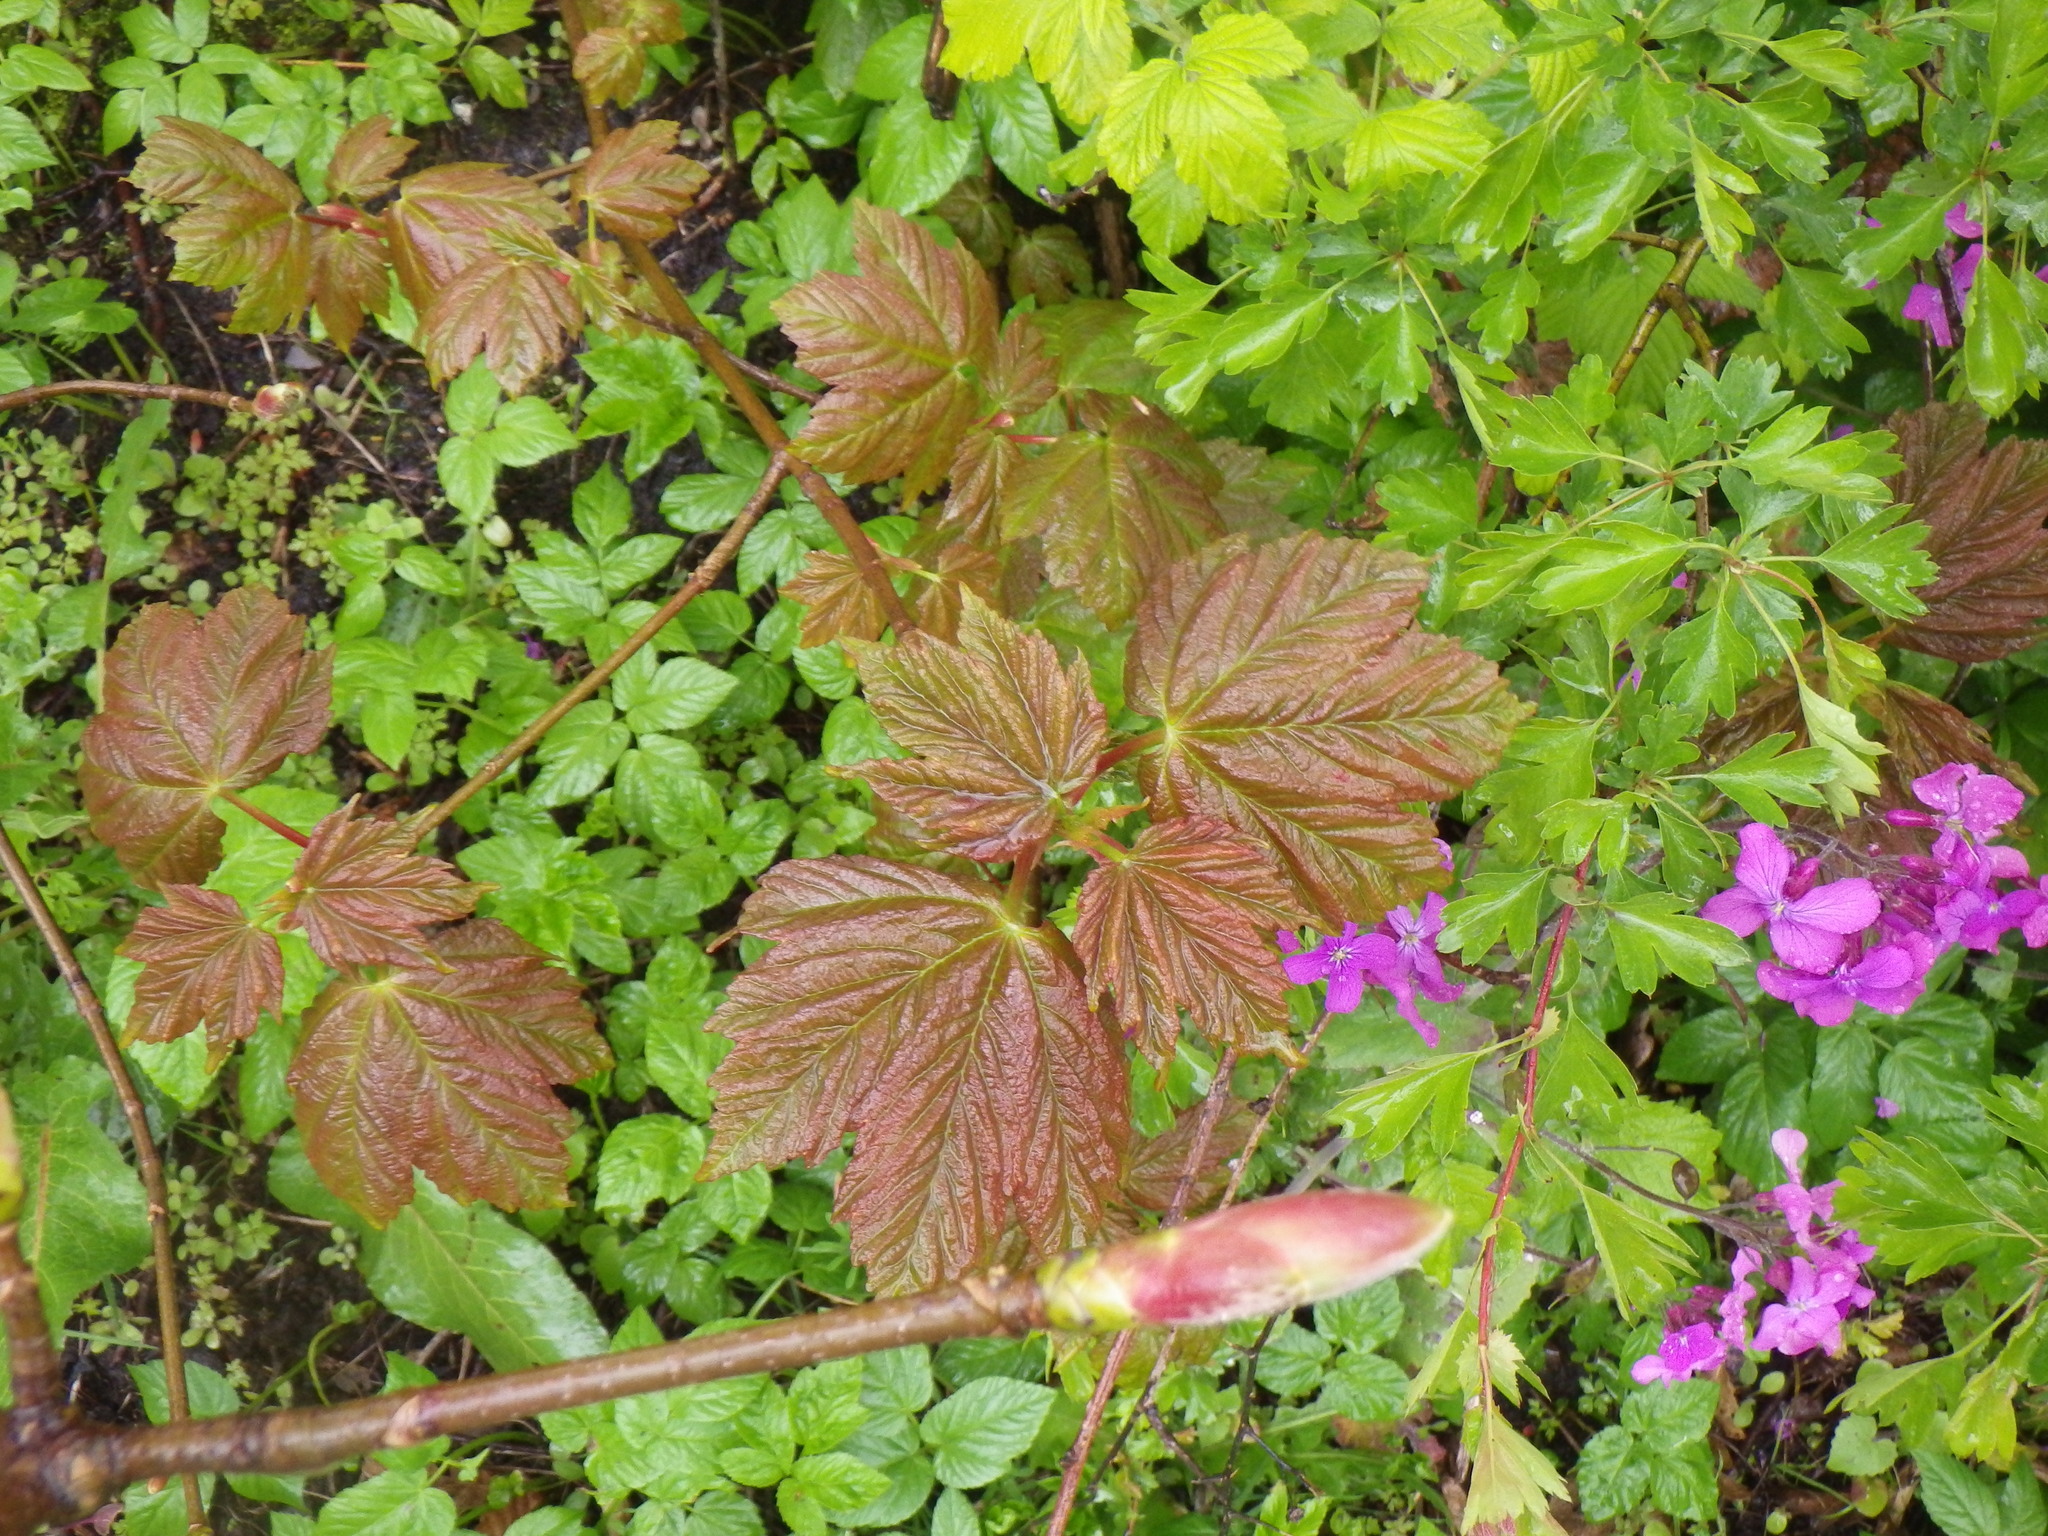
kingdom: Plantae
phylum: Tracheophyta
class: Magnoliopsida
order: Sapindales
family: Sapindaceae
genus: Acer
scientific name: Acer pseudoplatanus
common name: Sycamore
